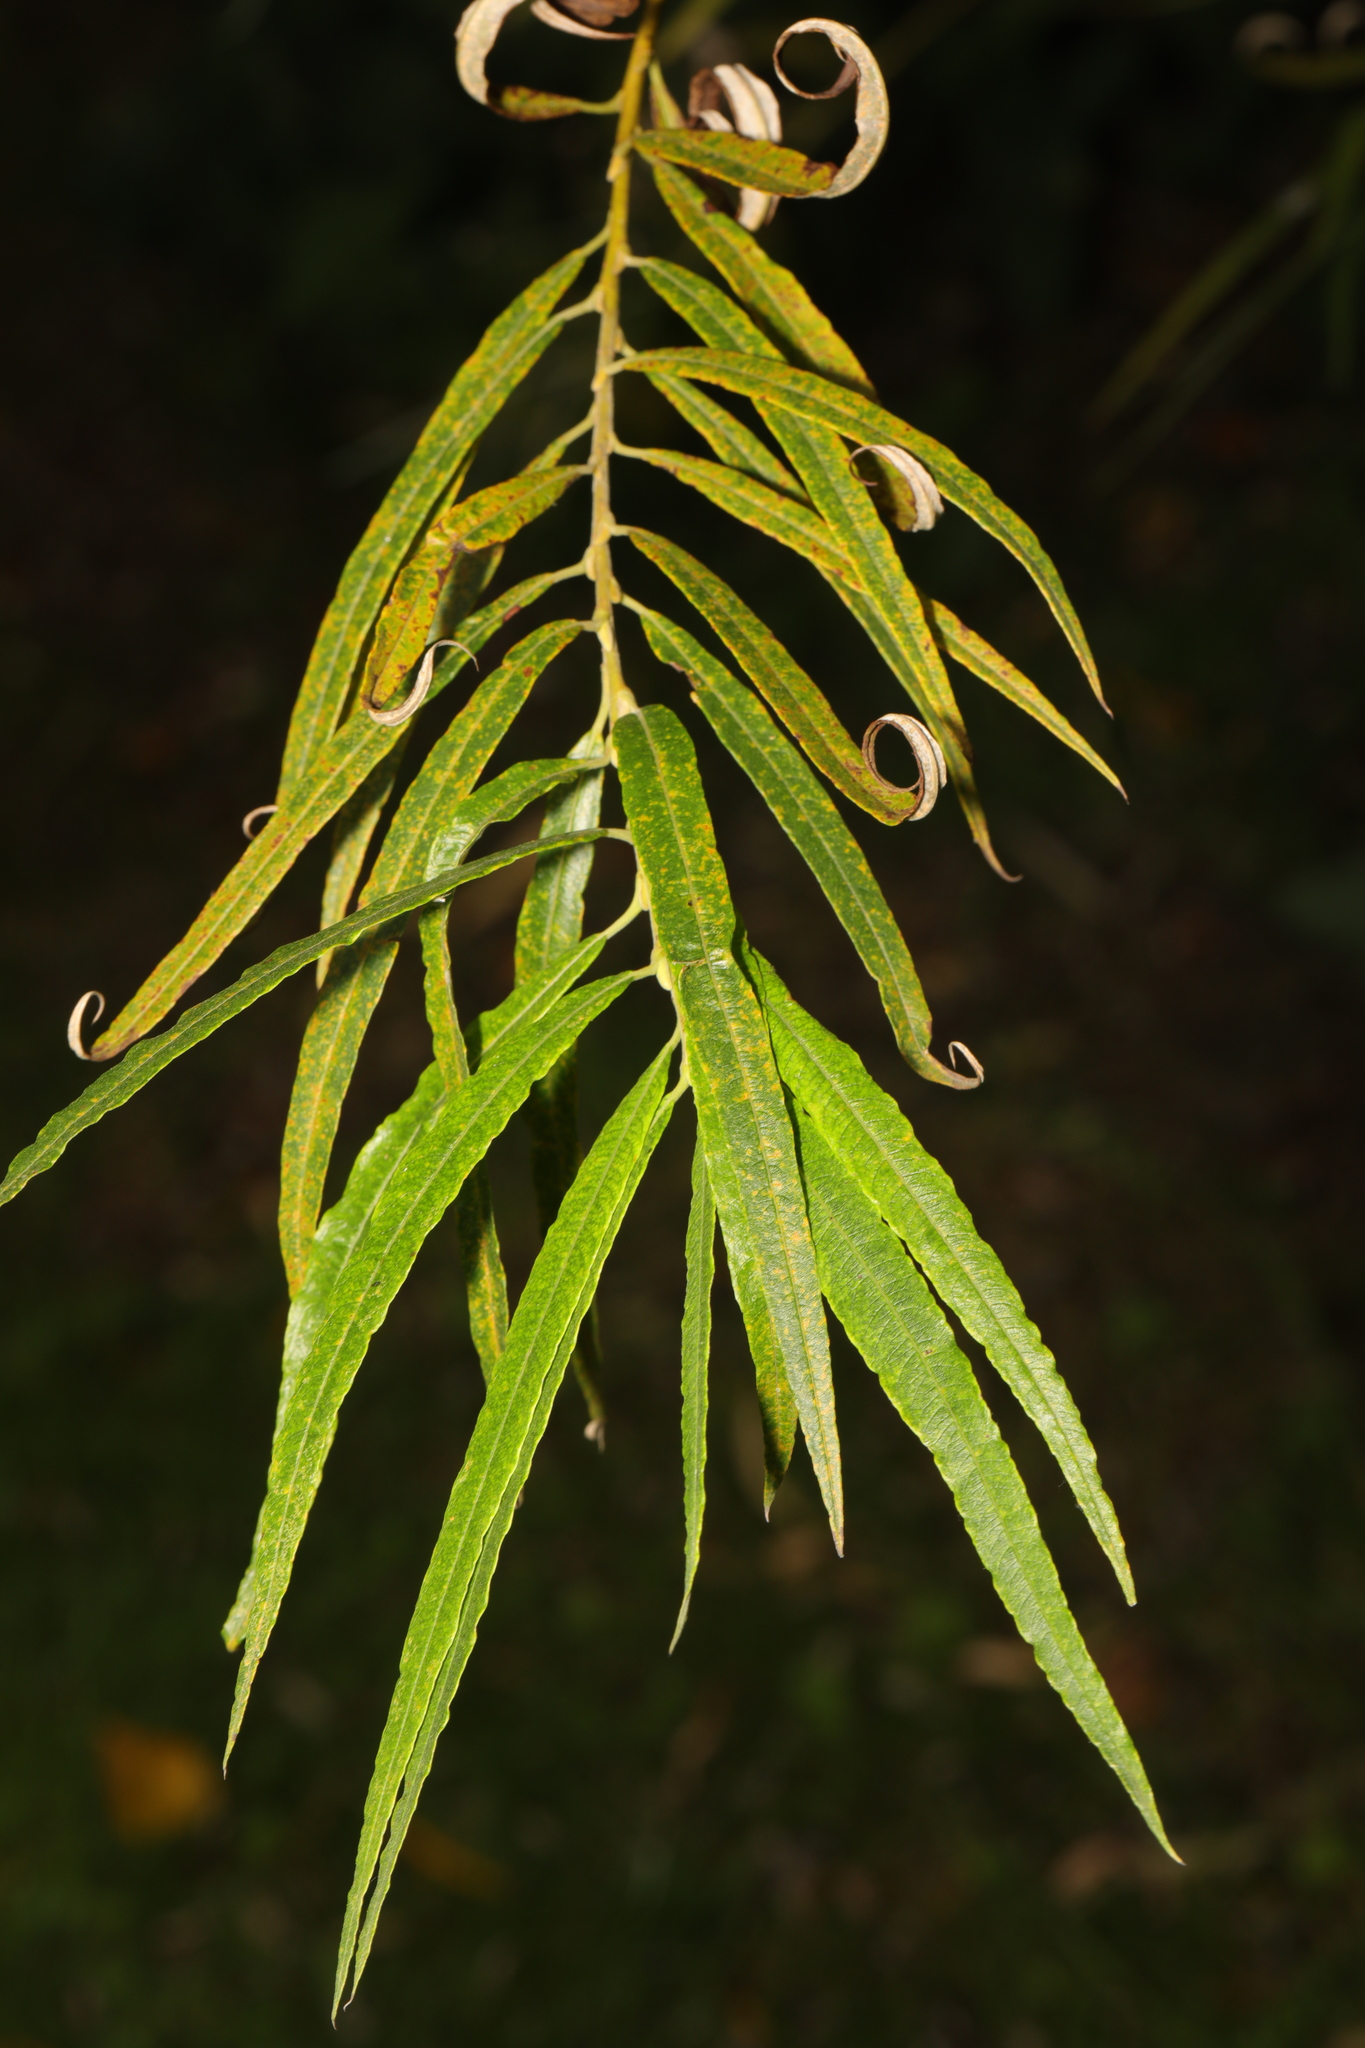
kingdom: Plantae
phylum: Tracheophyta
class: Magnoliopsida
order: Malpighiales
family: Salicaceae
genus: Salix
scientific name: Salix viminalis
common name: Osier
